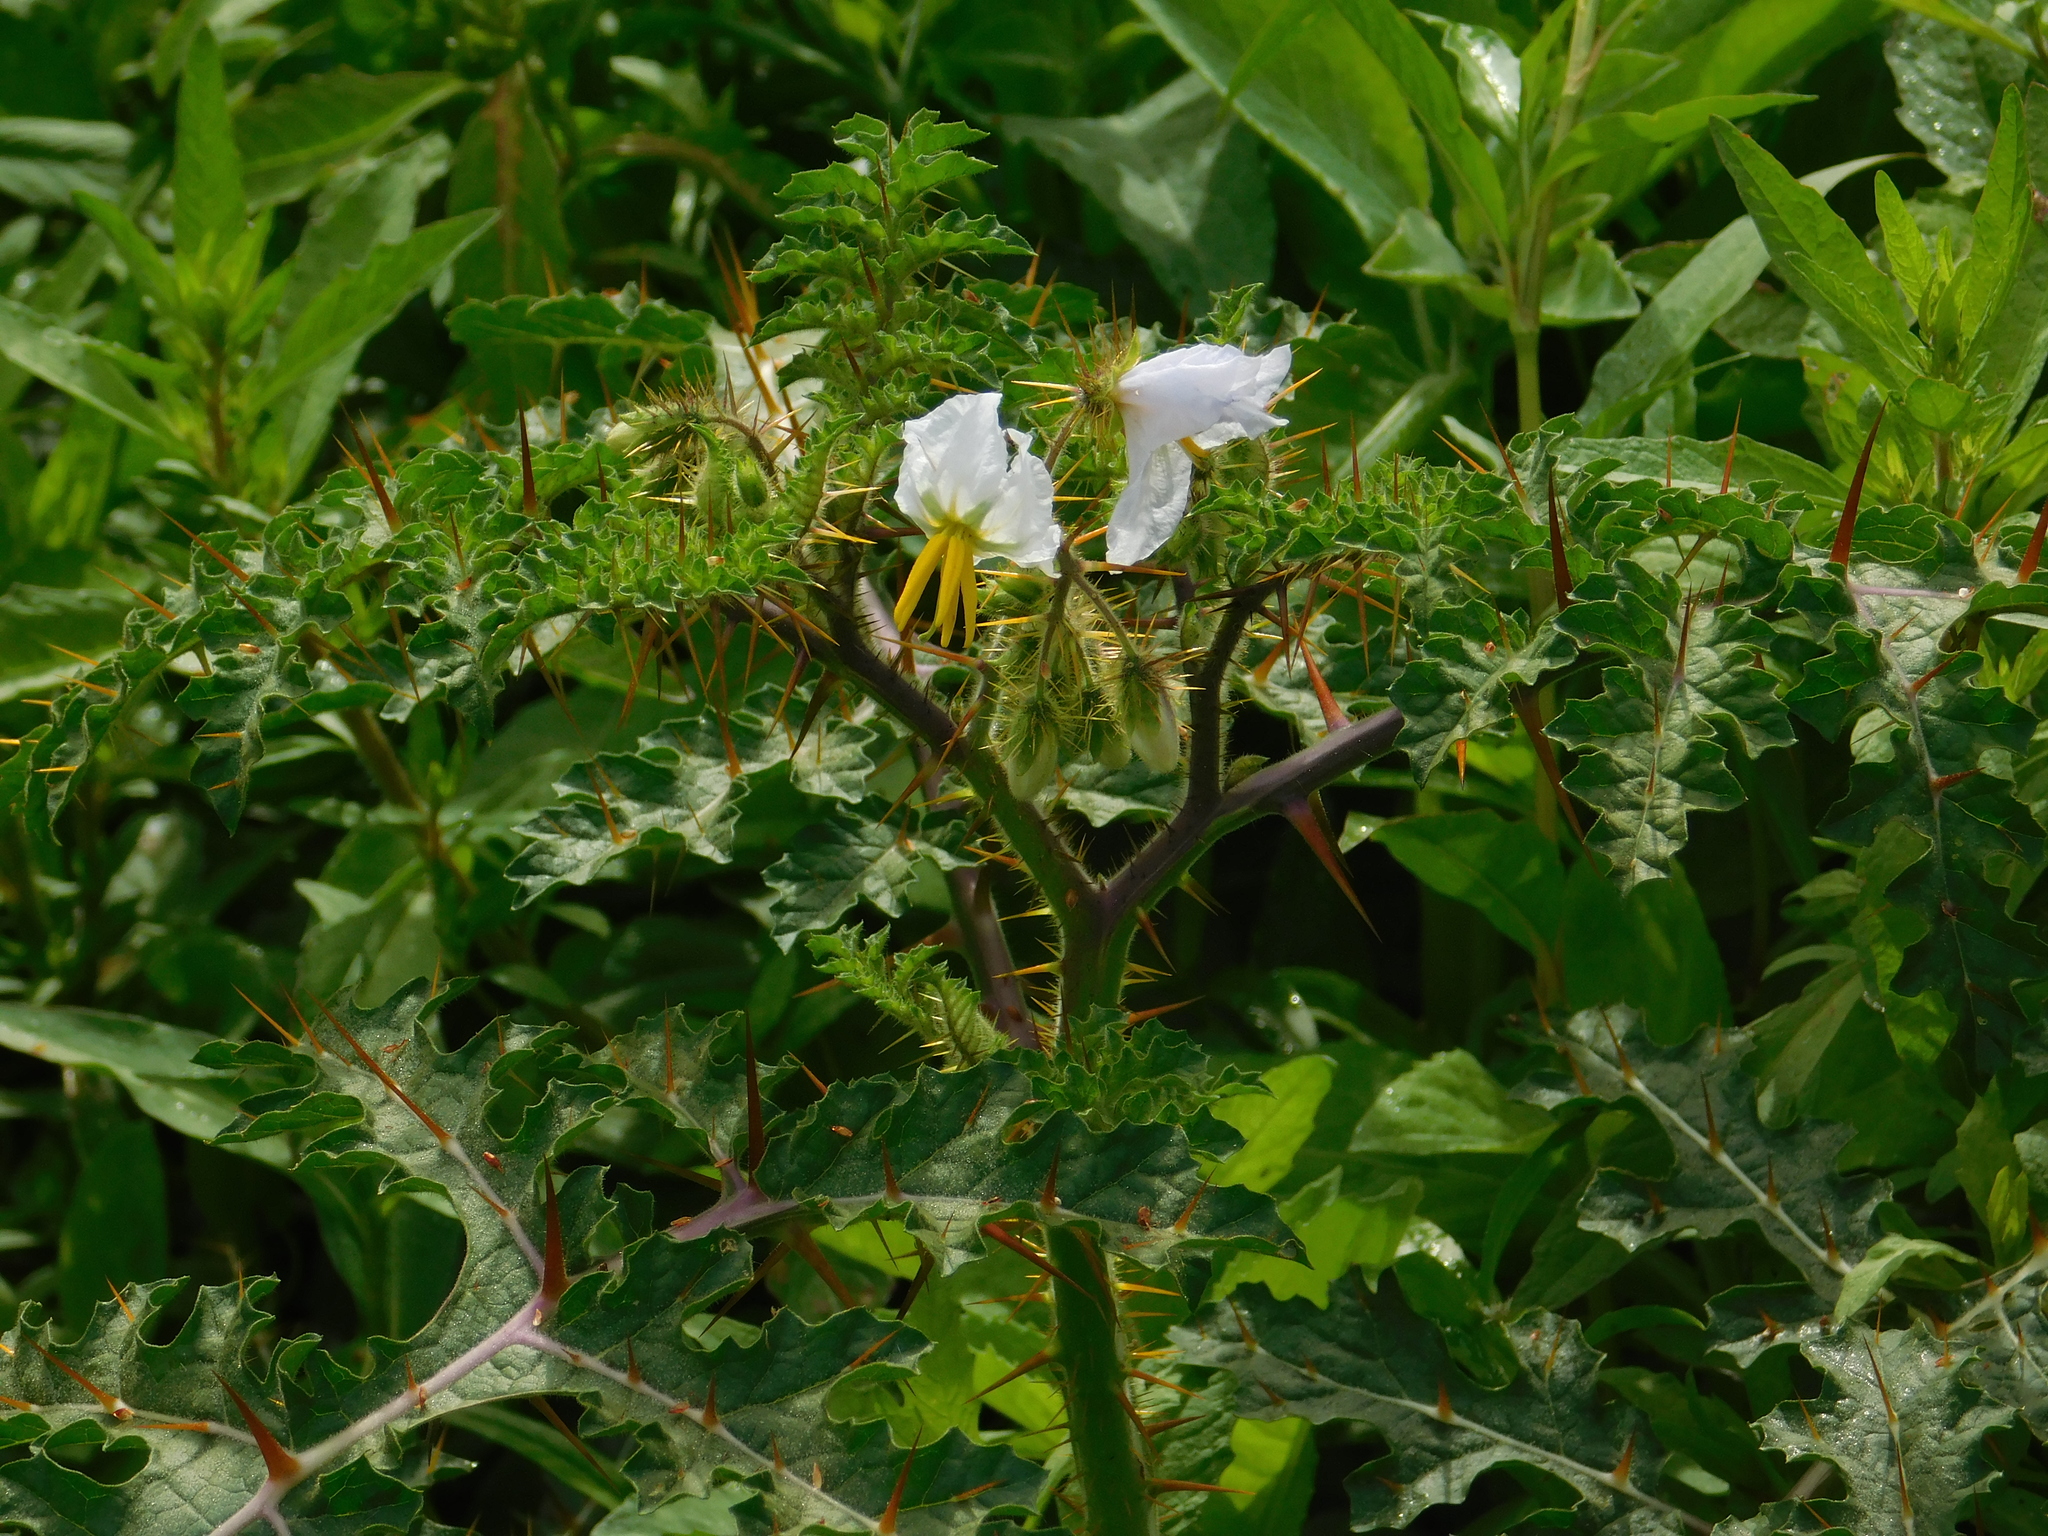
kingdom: Plantae
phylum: Tracheophyta
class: Magnoliopsida
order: Solanales
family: Solanaceae
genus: Solanum
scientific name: Solanum sisymbriifolium
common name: Red buffalo-bur
